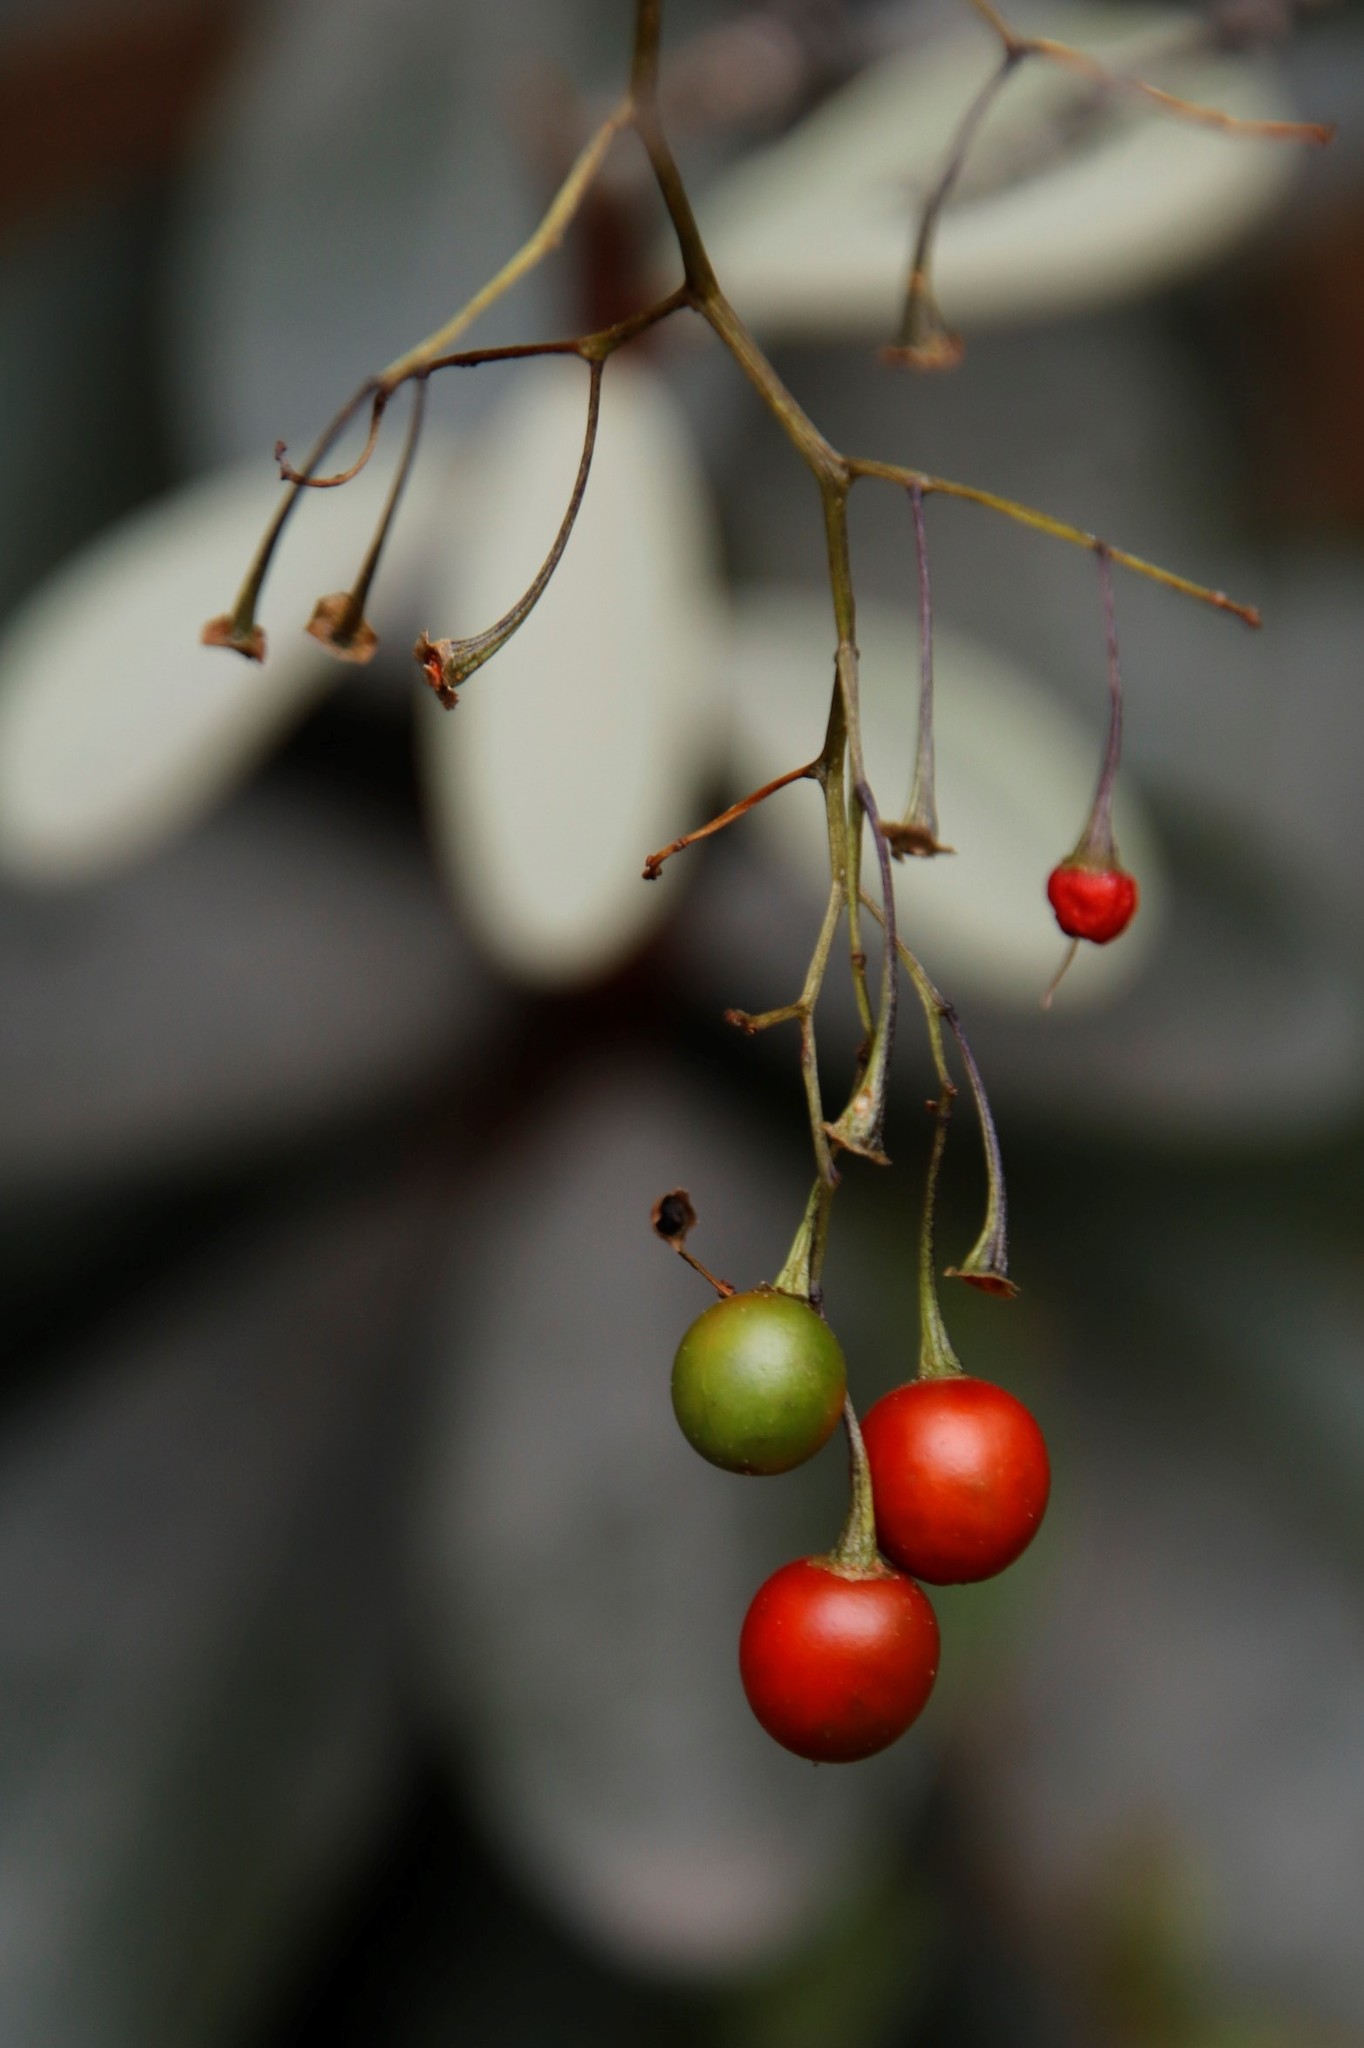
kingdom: Plantae
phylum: Tracheophyta
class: Magnoliopsida
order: Solanales
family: Solanaceae
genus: Solanum
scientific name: Solanum seaforthianum
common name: Brazilian nightshade
